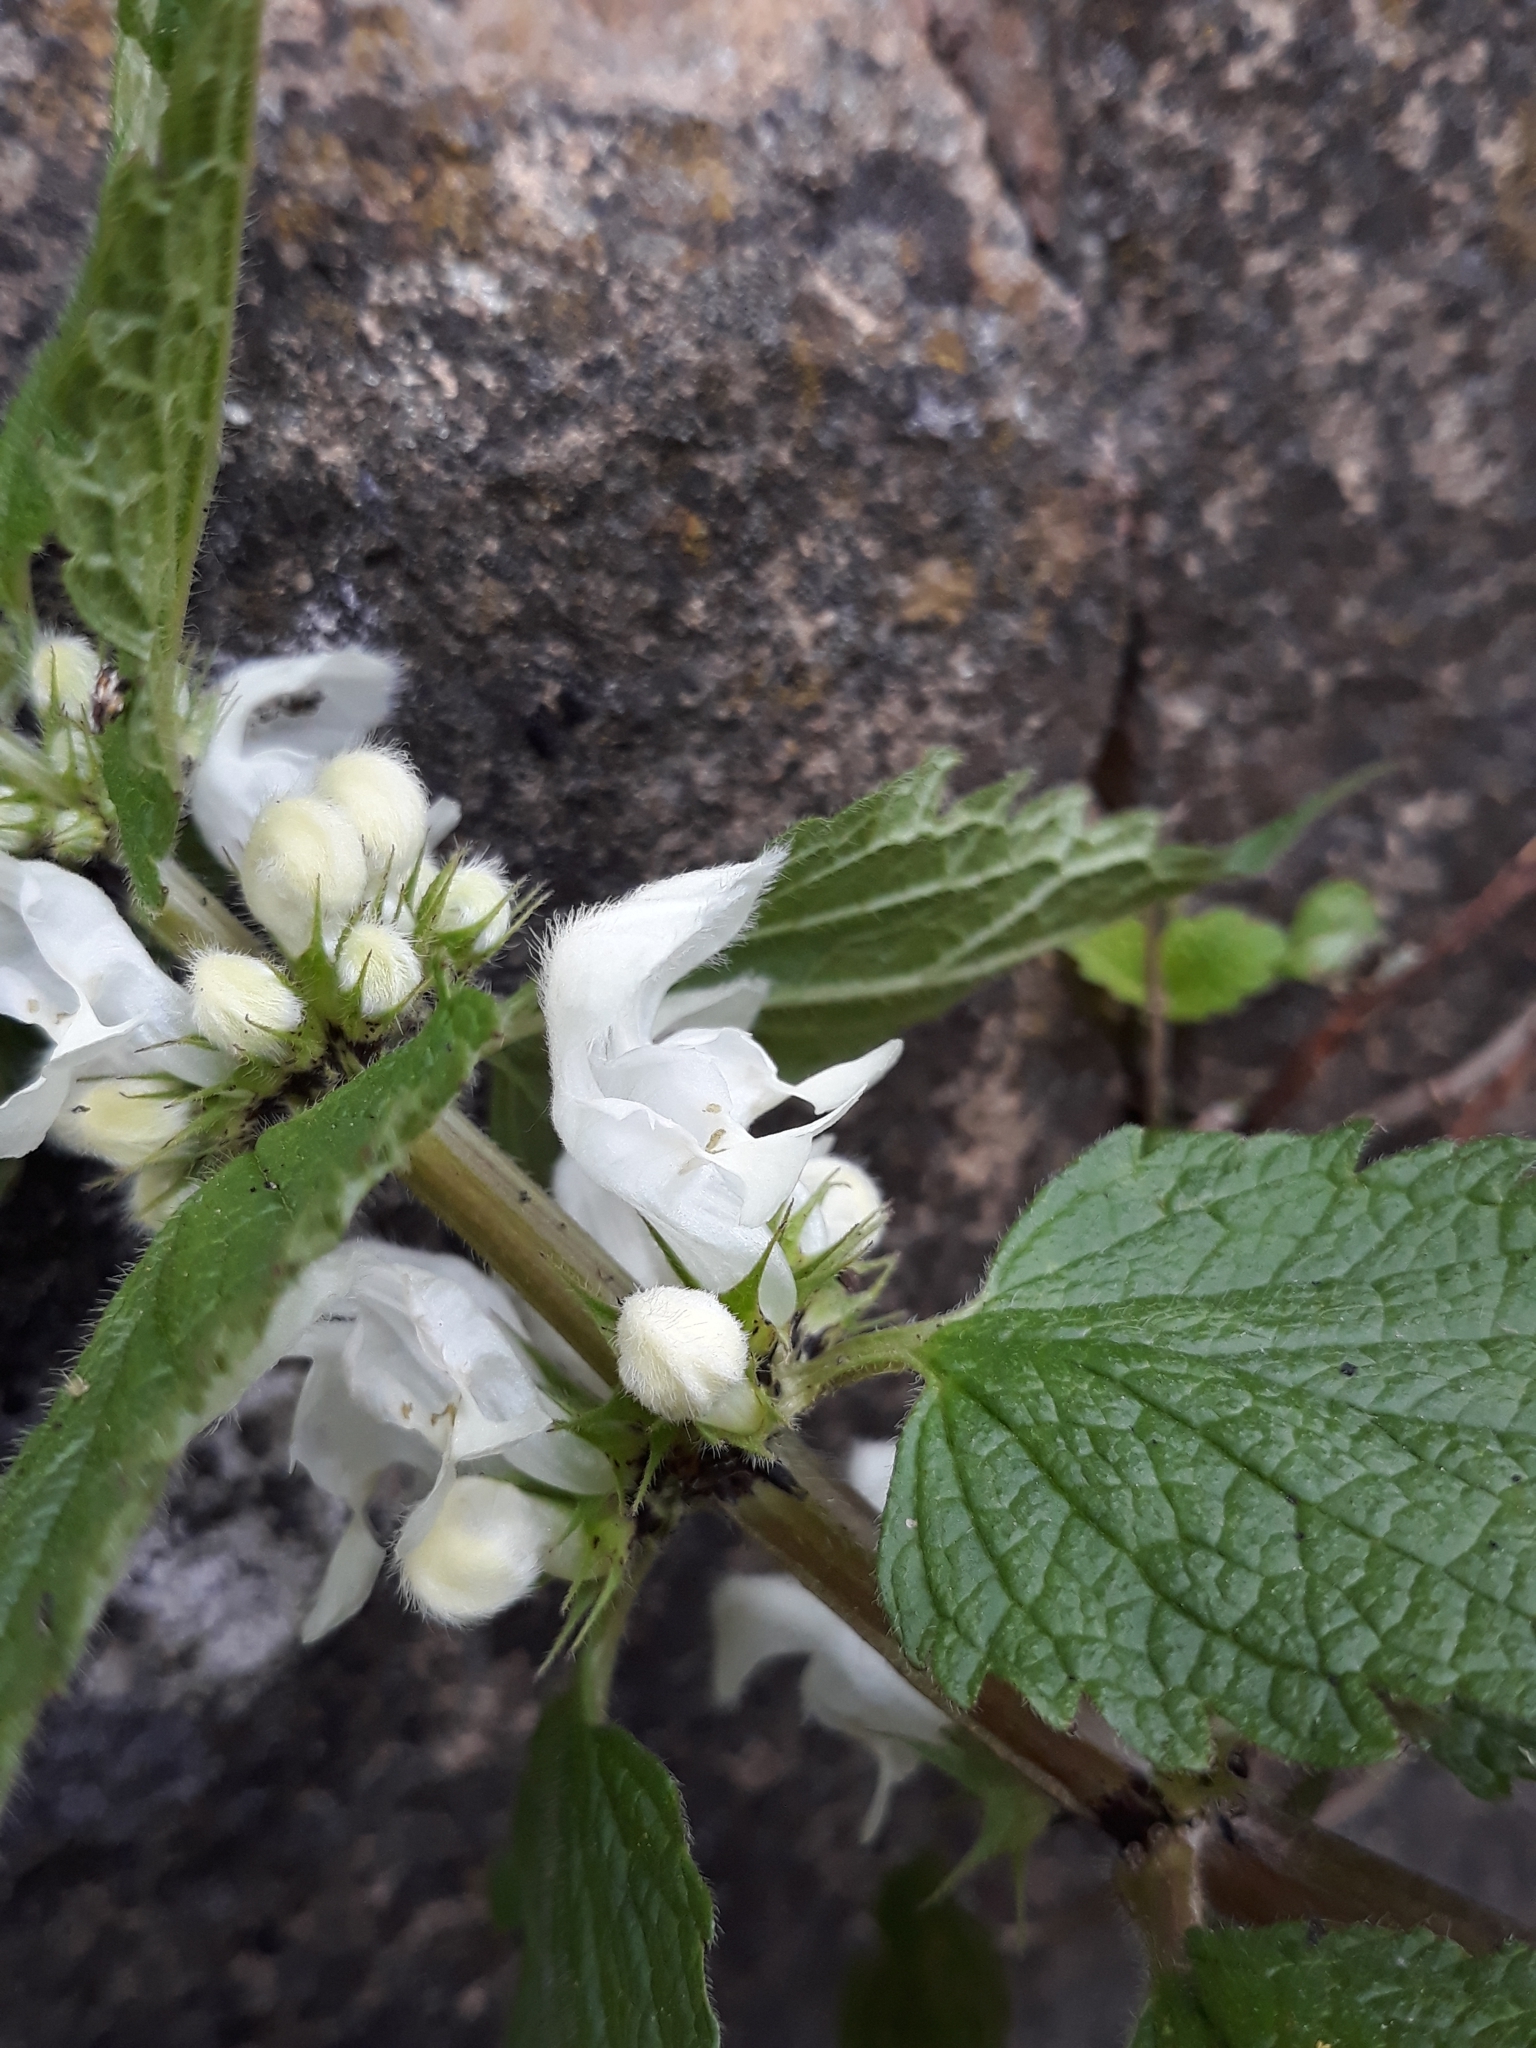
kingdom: Plantae
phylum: Tracheophyta
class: Magnoliopsida
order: Lamiales
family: Lamiaceae
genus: Lamium
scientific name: Lamium album
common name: White dead-nettle
